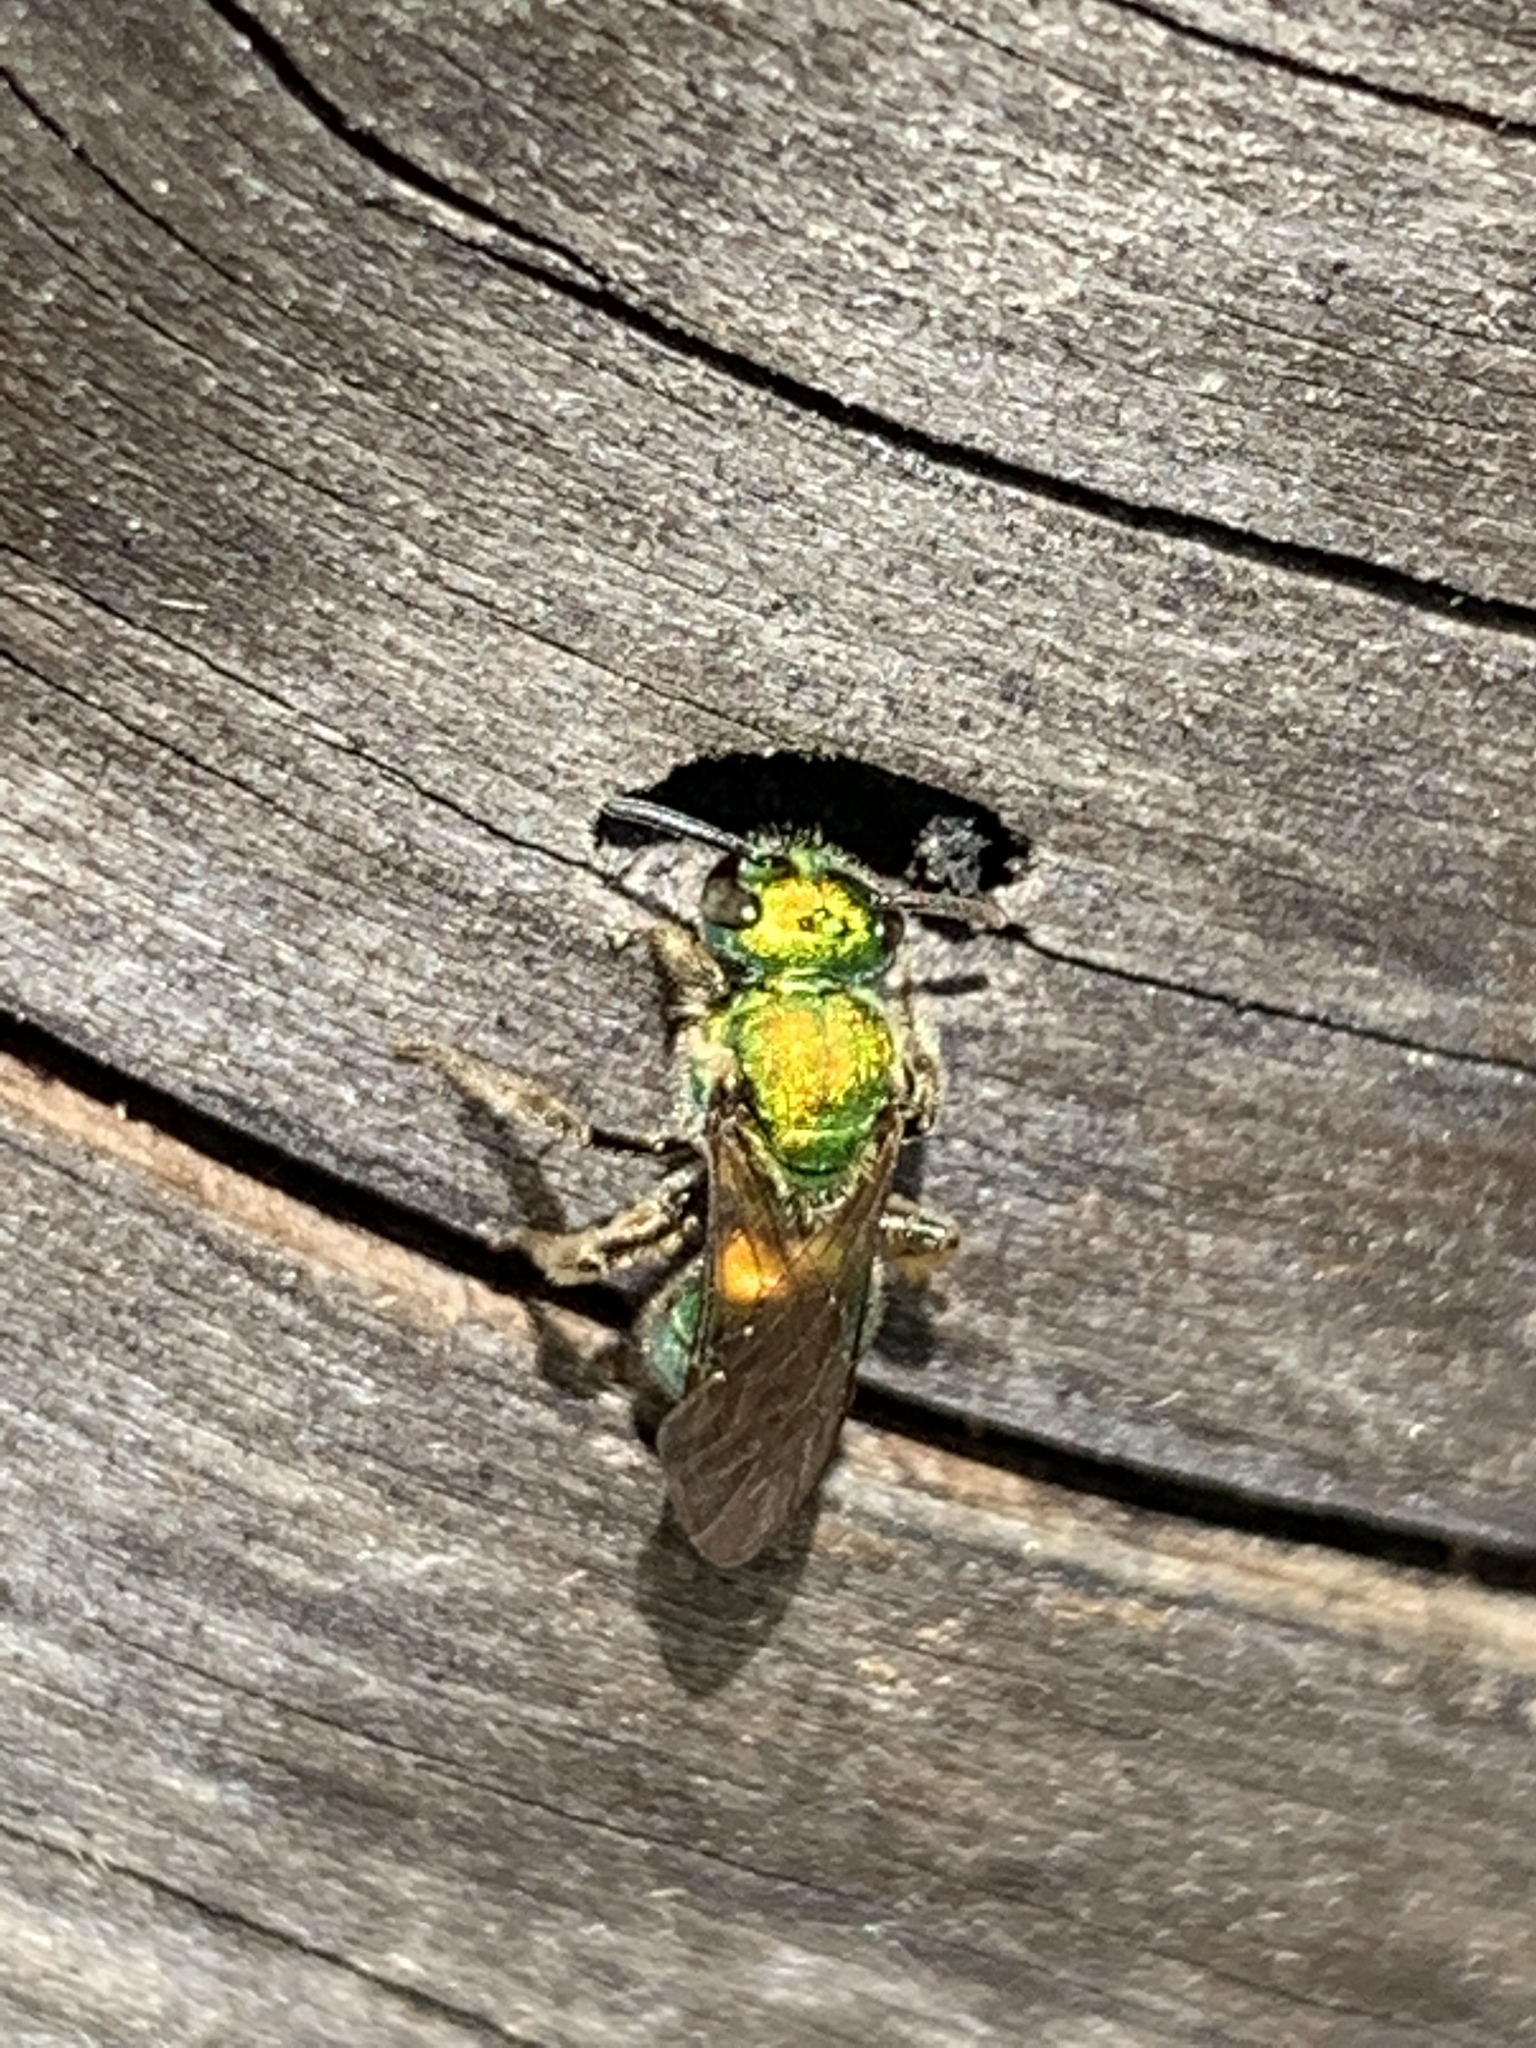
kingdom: Animalia
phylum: Arthropoda
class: Insecta
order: Hymenoptera
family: Halictidae
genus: Augochlora
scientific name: Augochlora pura
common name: Pure green sweat bee
